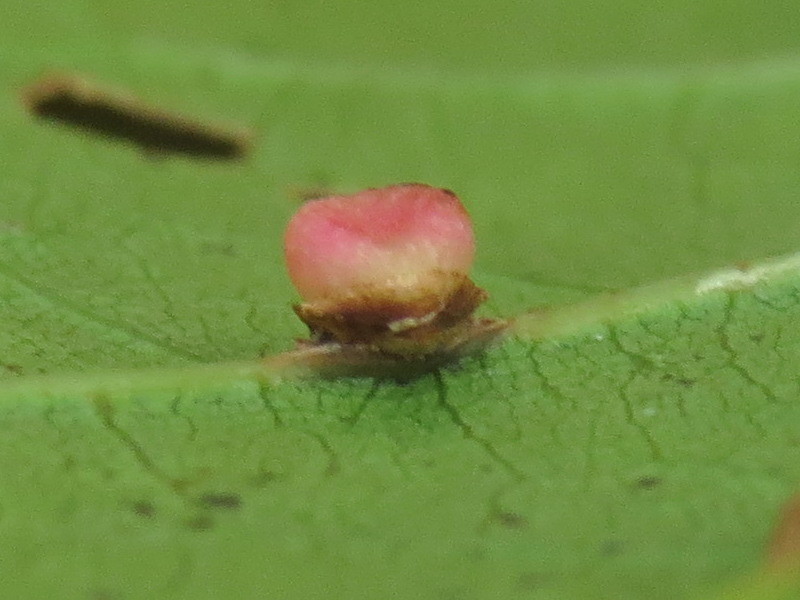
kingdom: Animalia
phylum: Arthropoda
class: Insecta
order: Hymenoptera
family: Cynipidae
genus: Kokkocynips
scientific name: Kokkocynips rileyi
